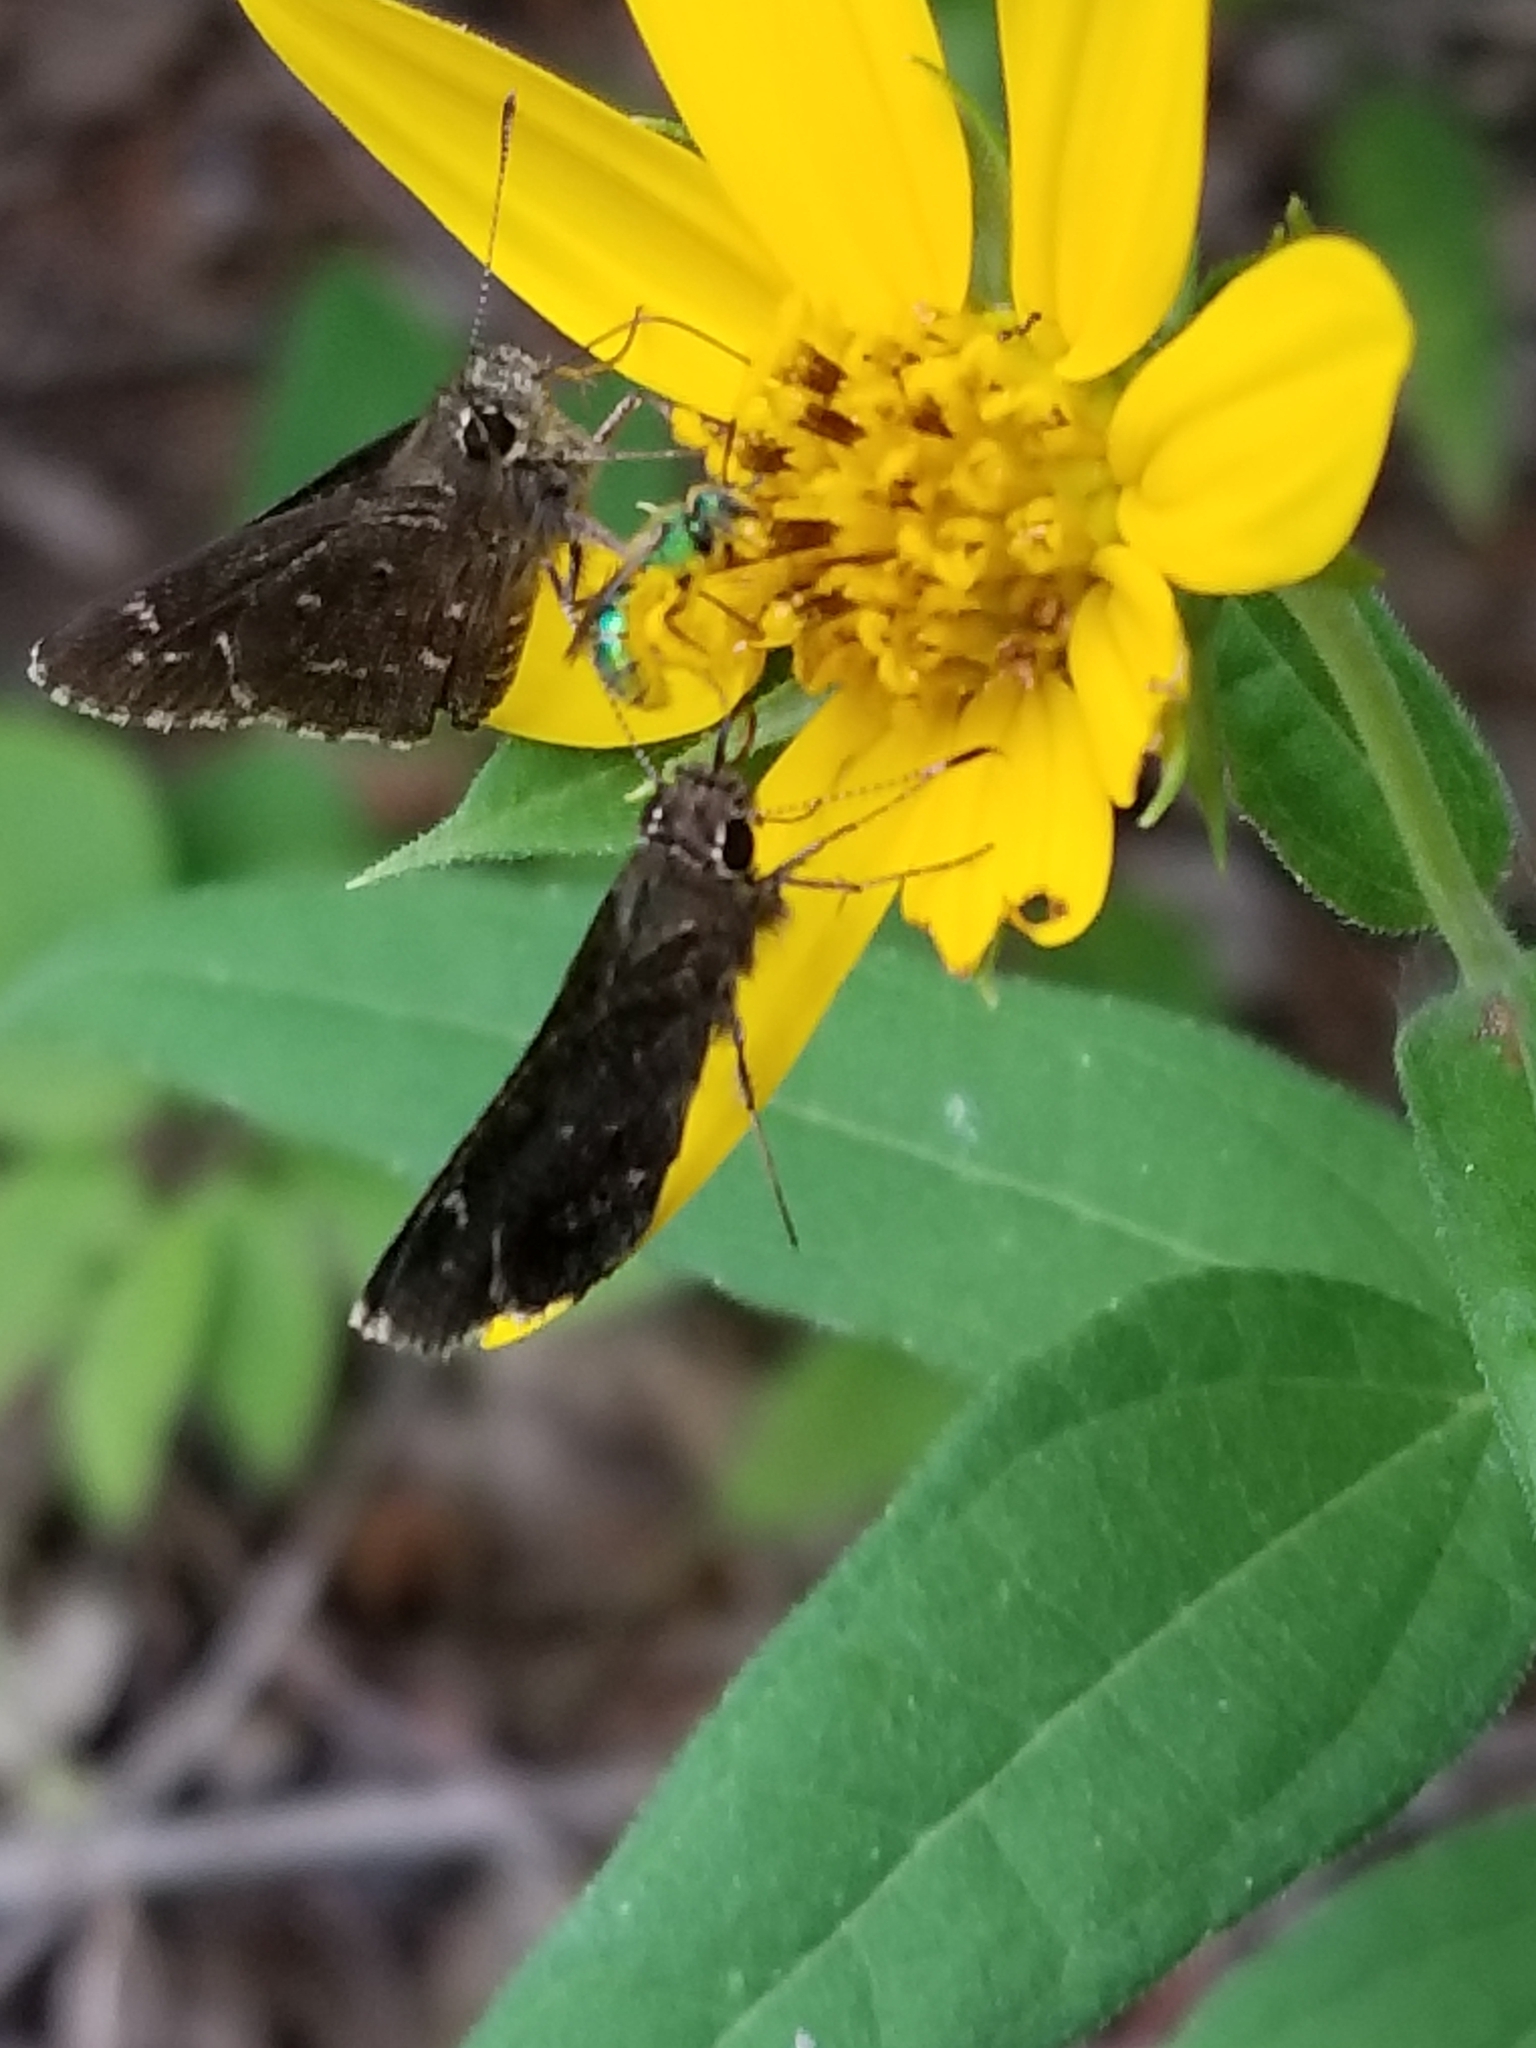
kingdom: Animalia
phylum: Arthropoda
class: Insecta
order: Lepidoptera
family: Hesperiidae
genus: Mastor
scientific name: Mastor celia
